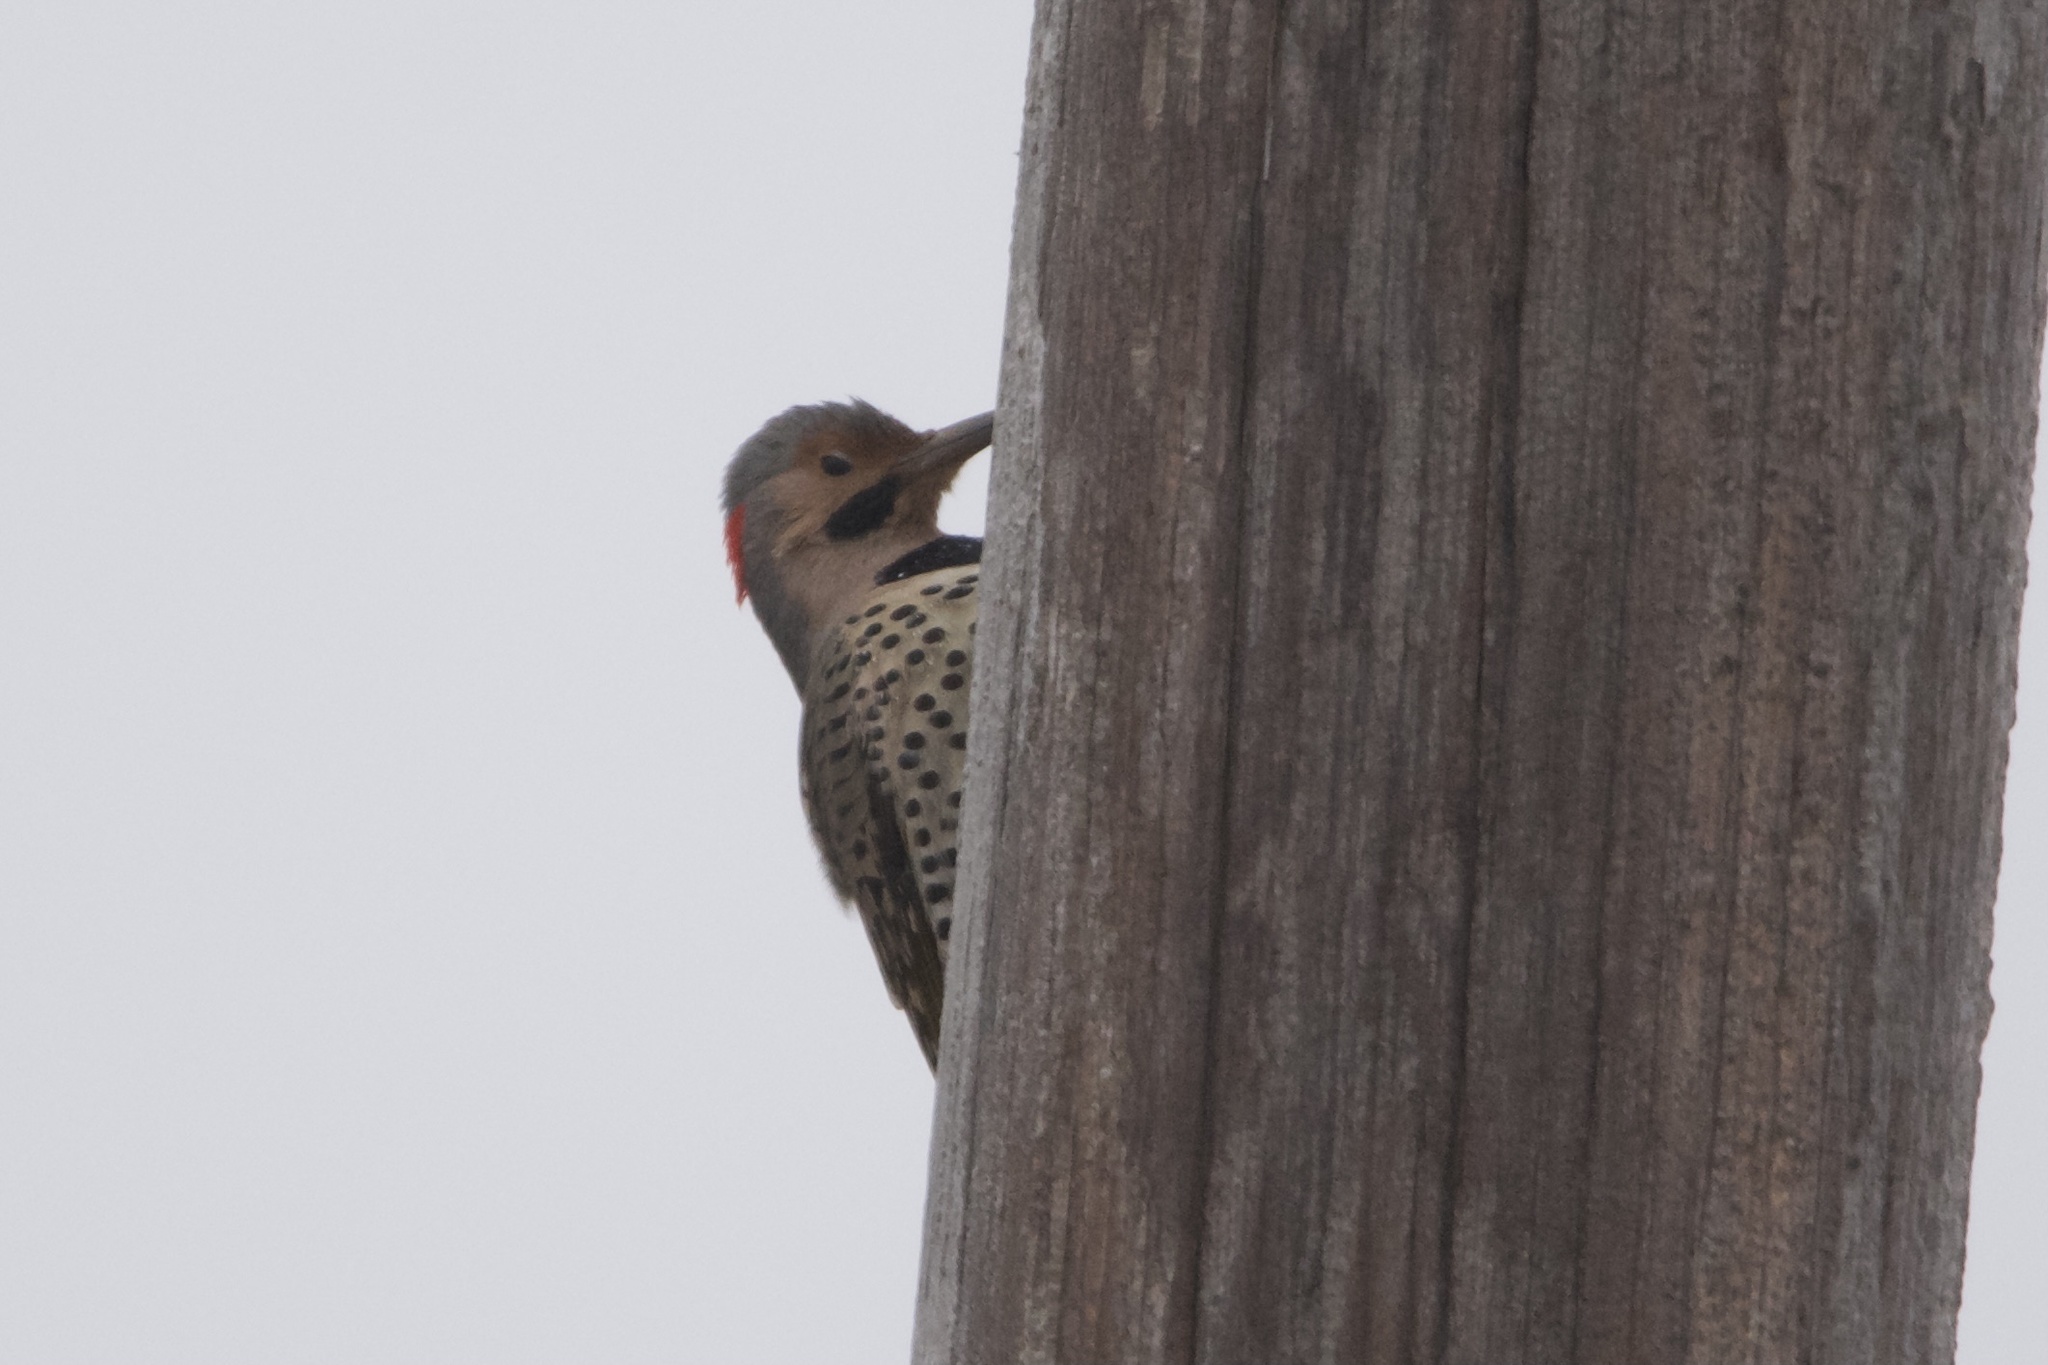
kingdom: Animalia
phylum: Chordata
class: Aves
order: Piciformes
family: Picidae
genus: Colaptes
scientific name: Colaptes auratus
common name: Northern flicker
